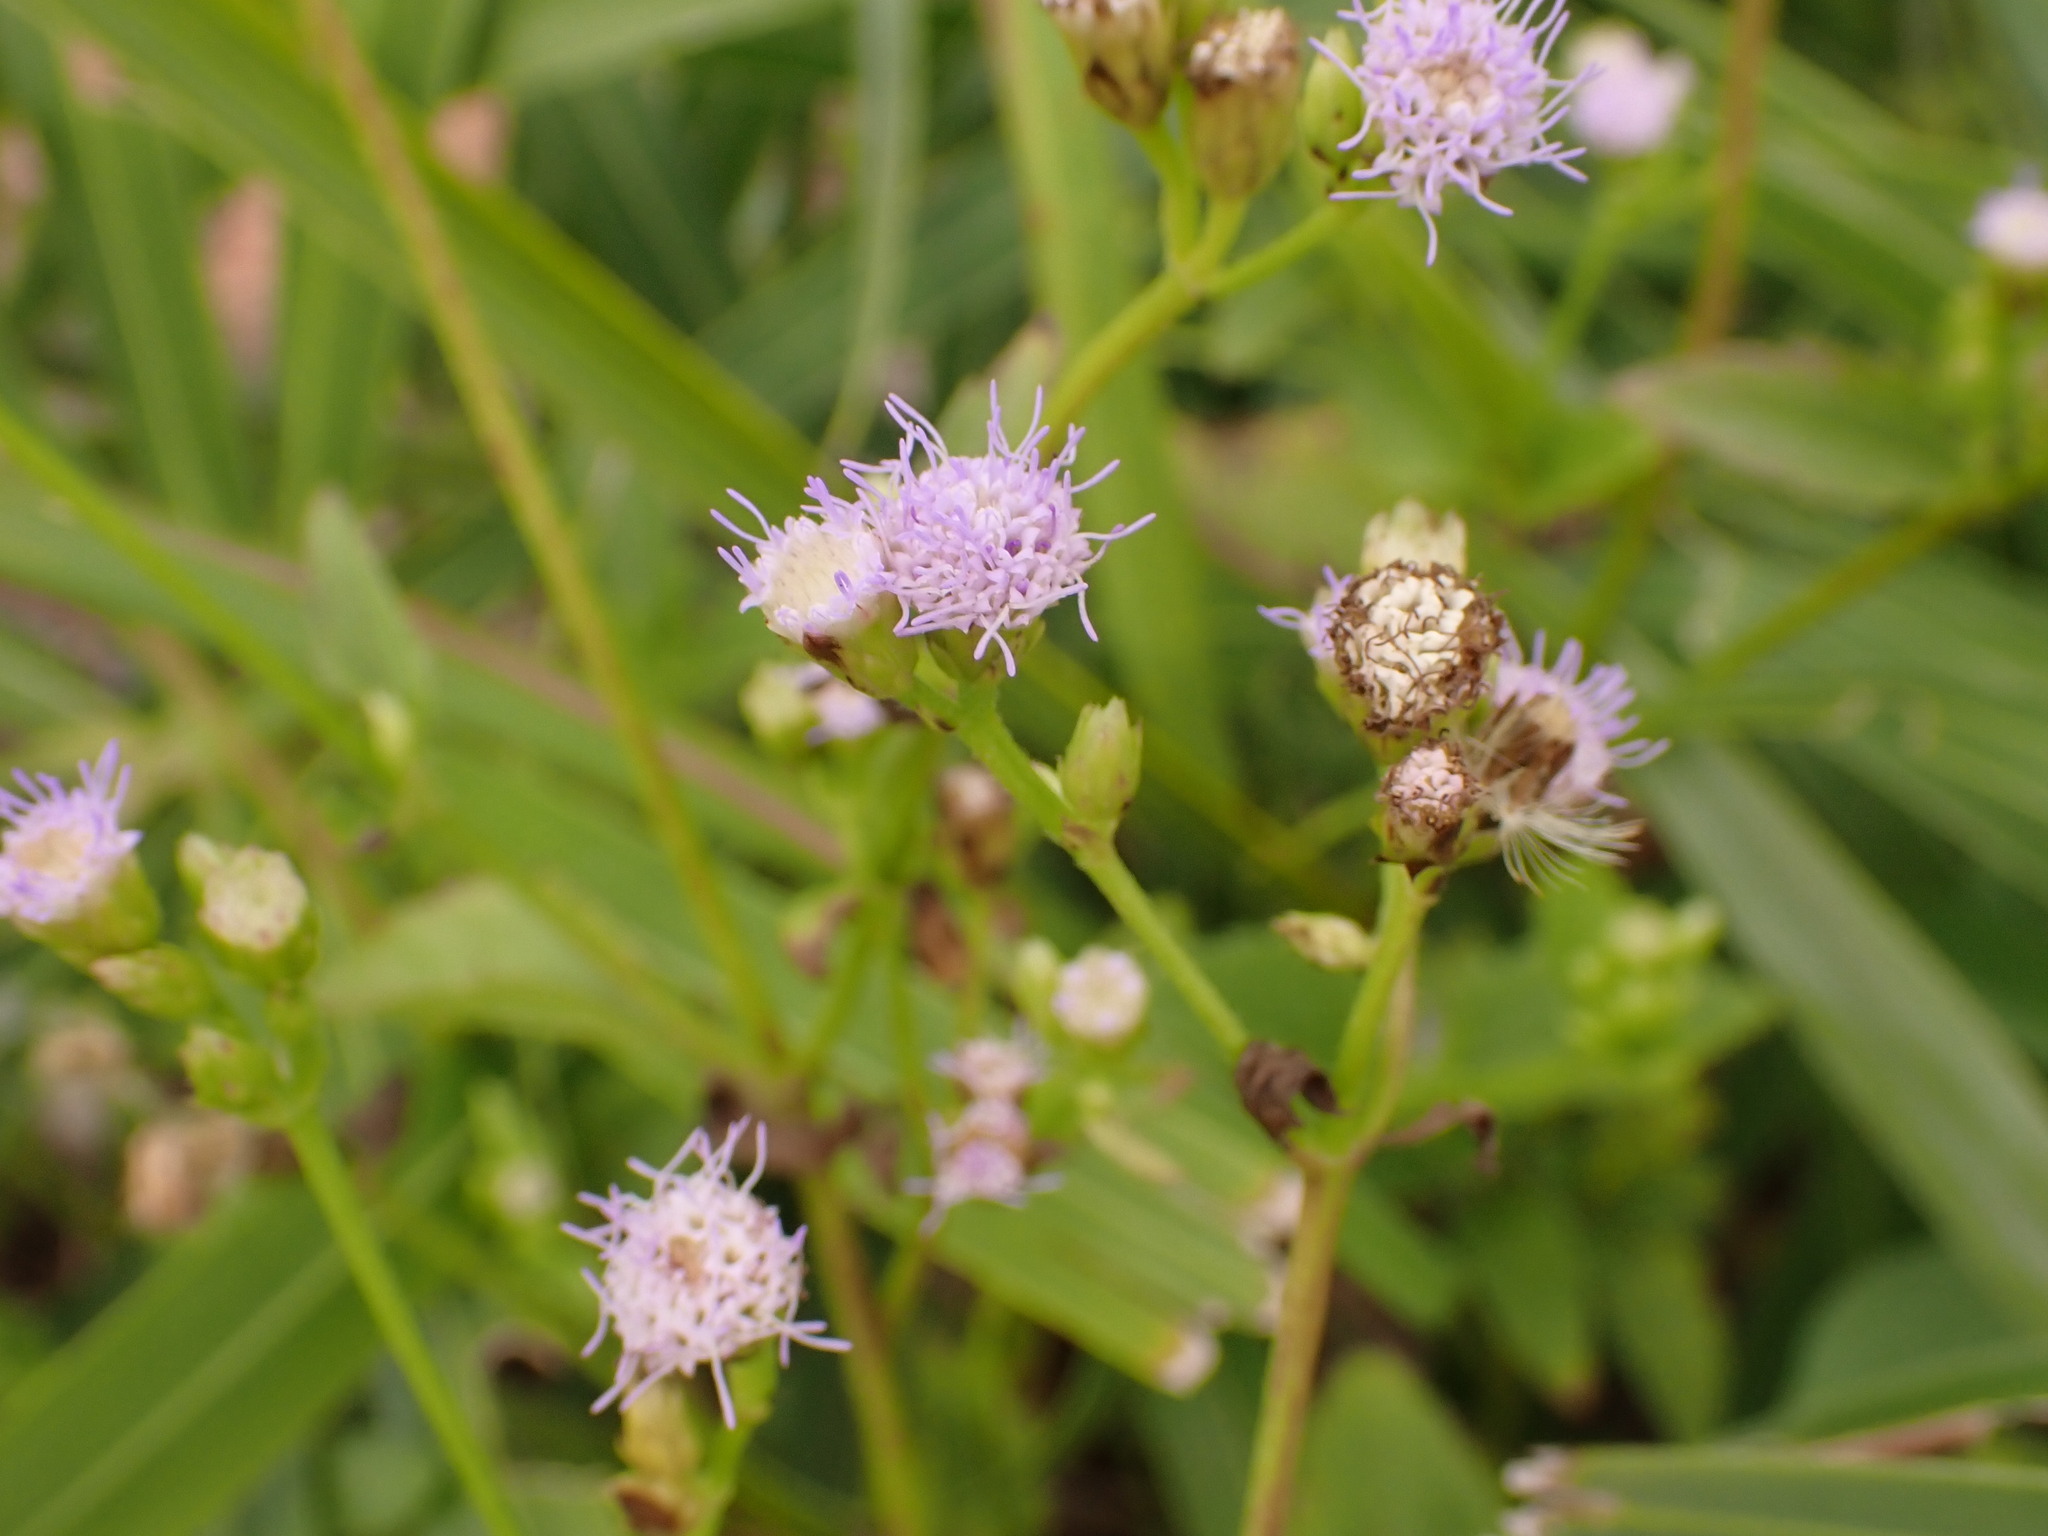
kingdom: Plantae
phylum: Tracheophyta
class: Magnoliopsida
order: Asterales
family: Asteraceae
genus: Praxelis
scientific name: Praxelis clematidea
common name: Praxelis
